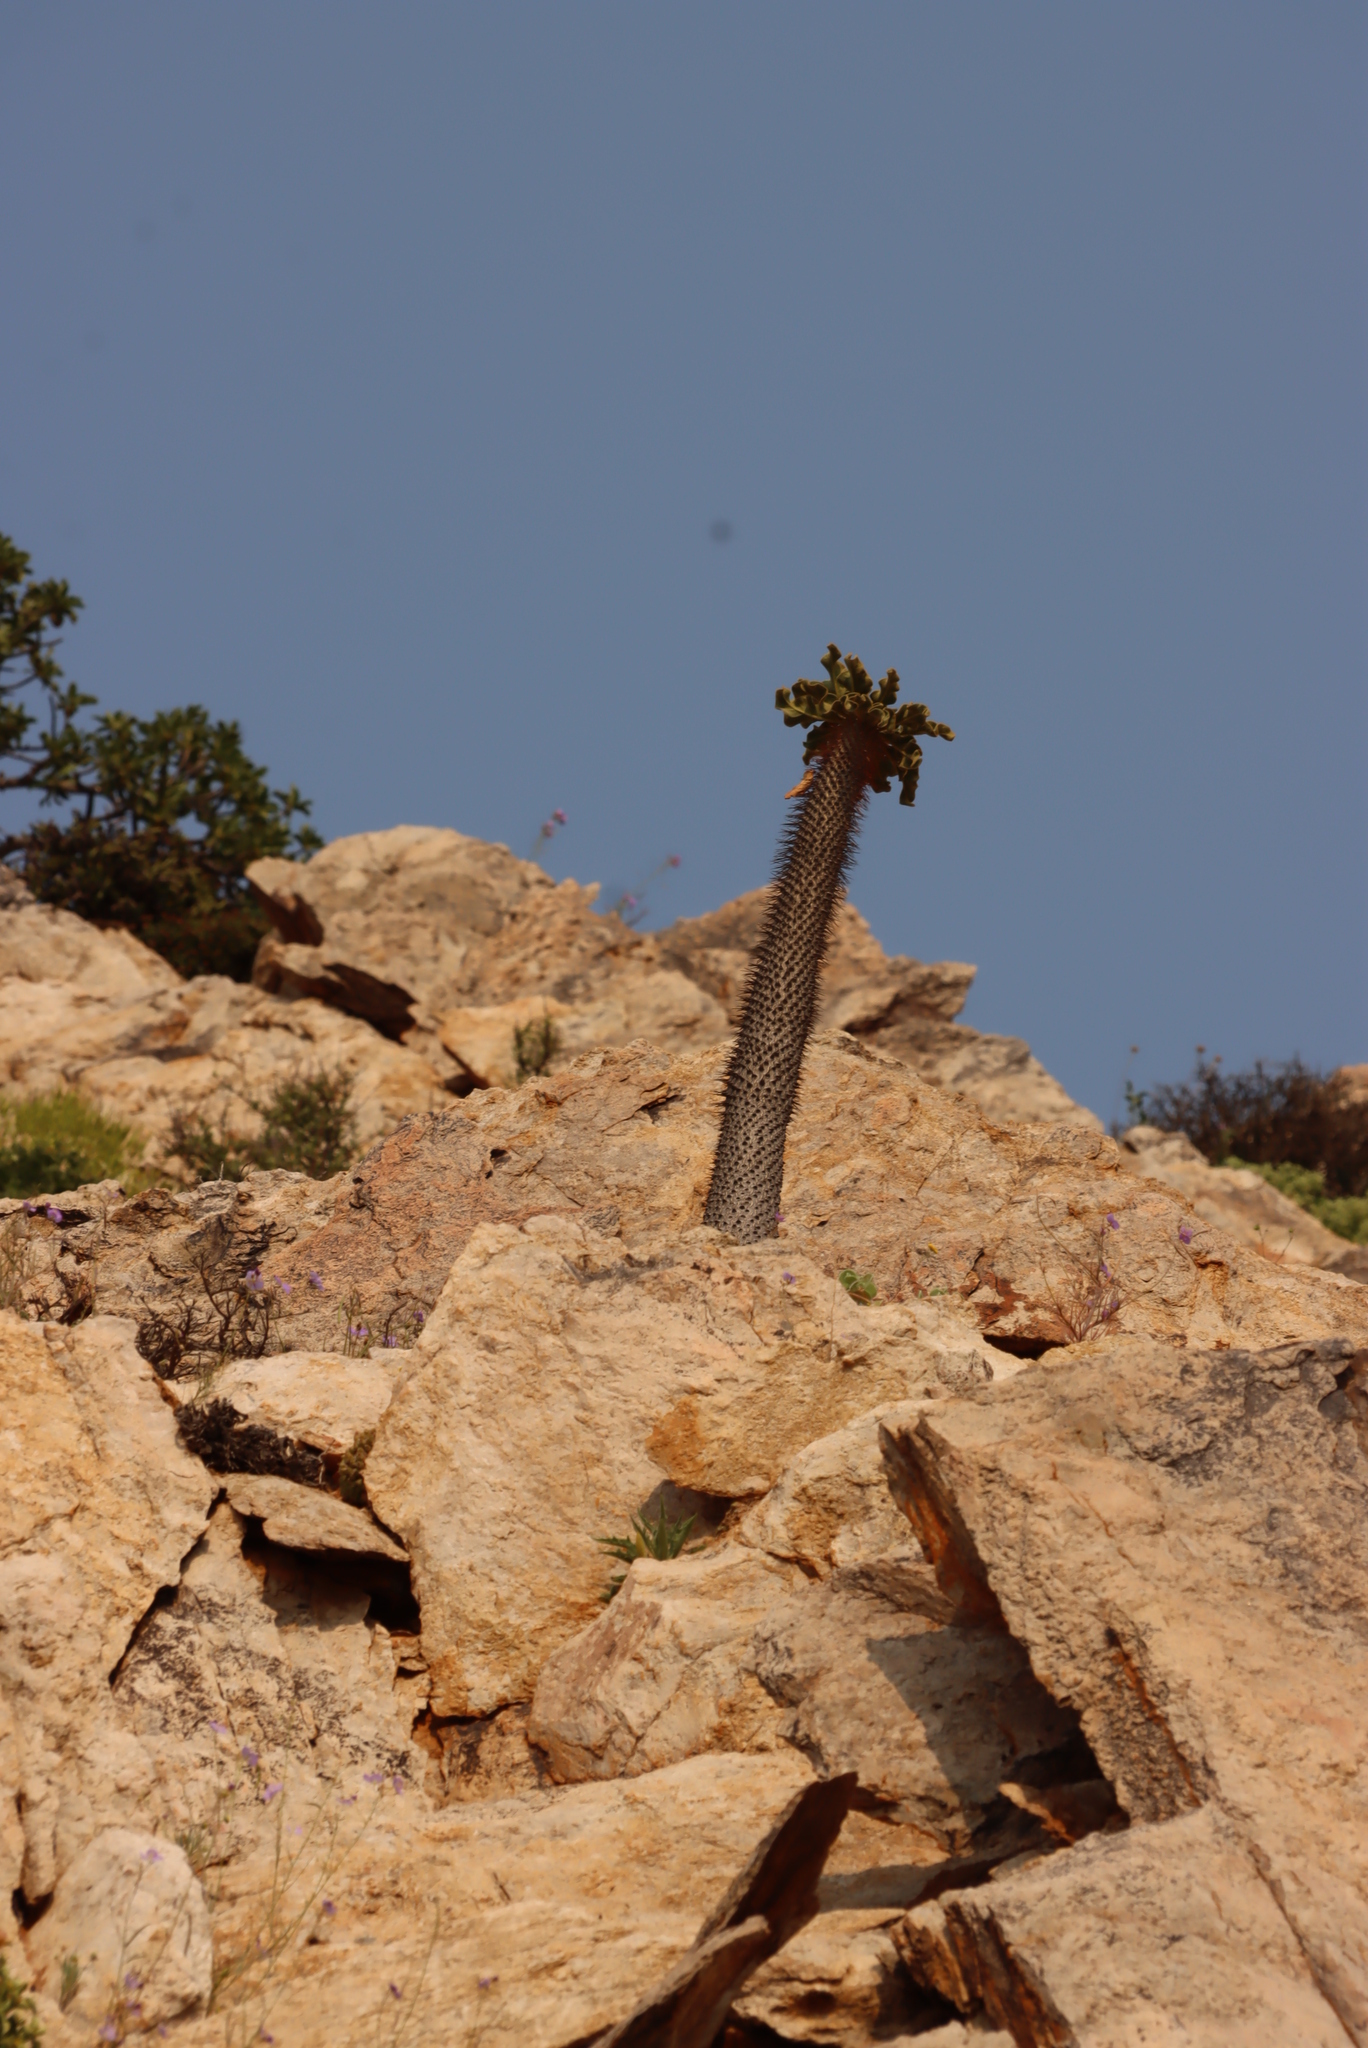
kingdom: Plantae
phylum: Tracheophyta
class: Magnoliopsida
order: Gentianales
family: Apocynaceae
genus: Pachypodium
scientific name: Pachypodium namaquanum
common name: Elephant's trunk
